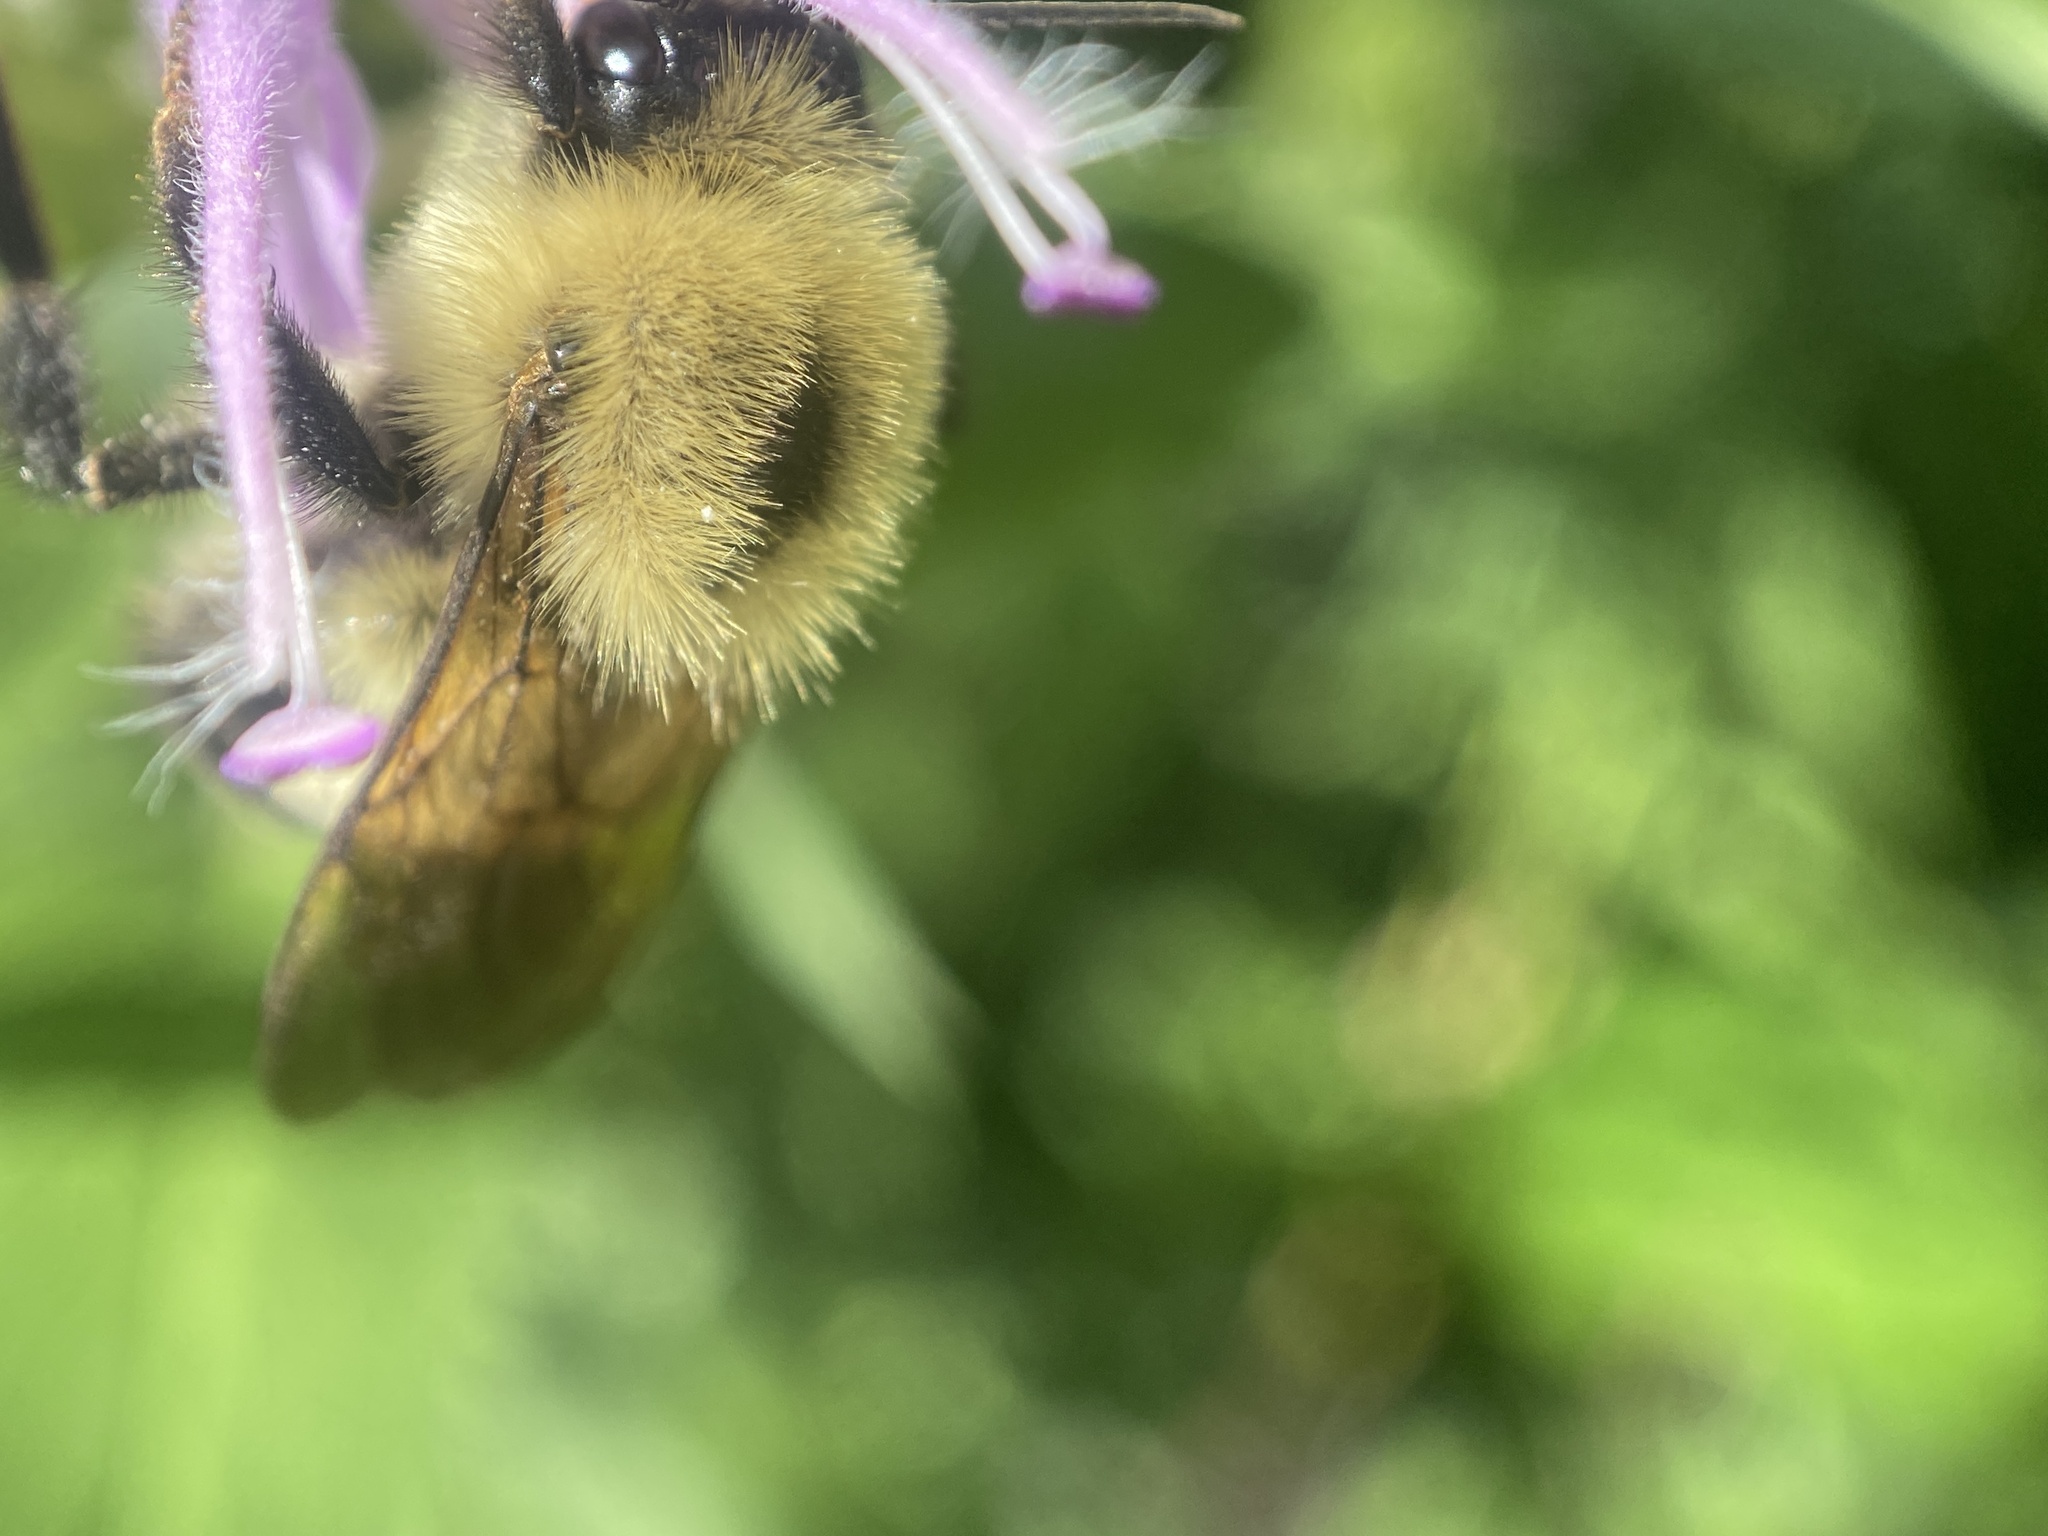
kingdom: Animalia
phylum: Arthropoda
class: Insecta
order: Hymenoptera
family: Apidae
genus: Bombus
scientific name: Bombus bimaculatus
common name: Two-spotted bumble bee
